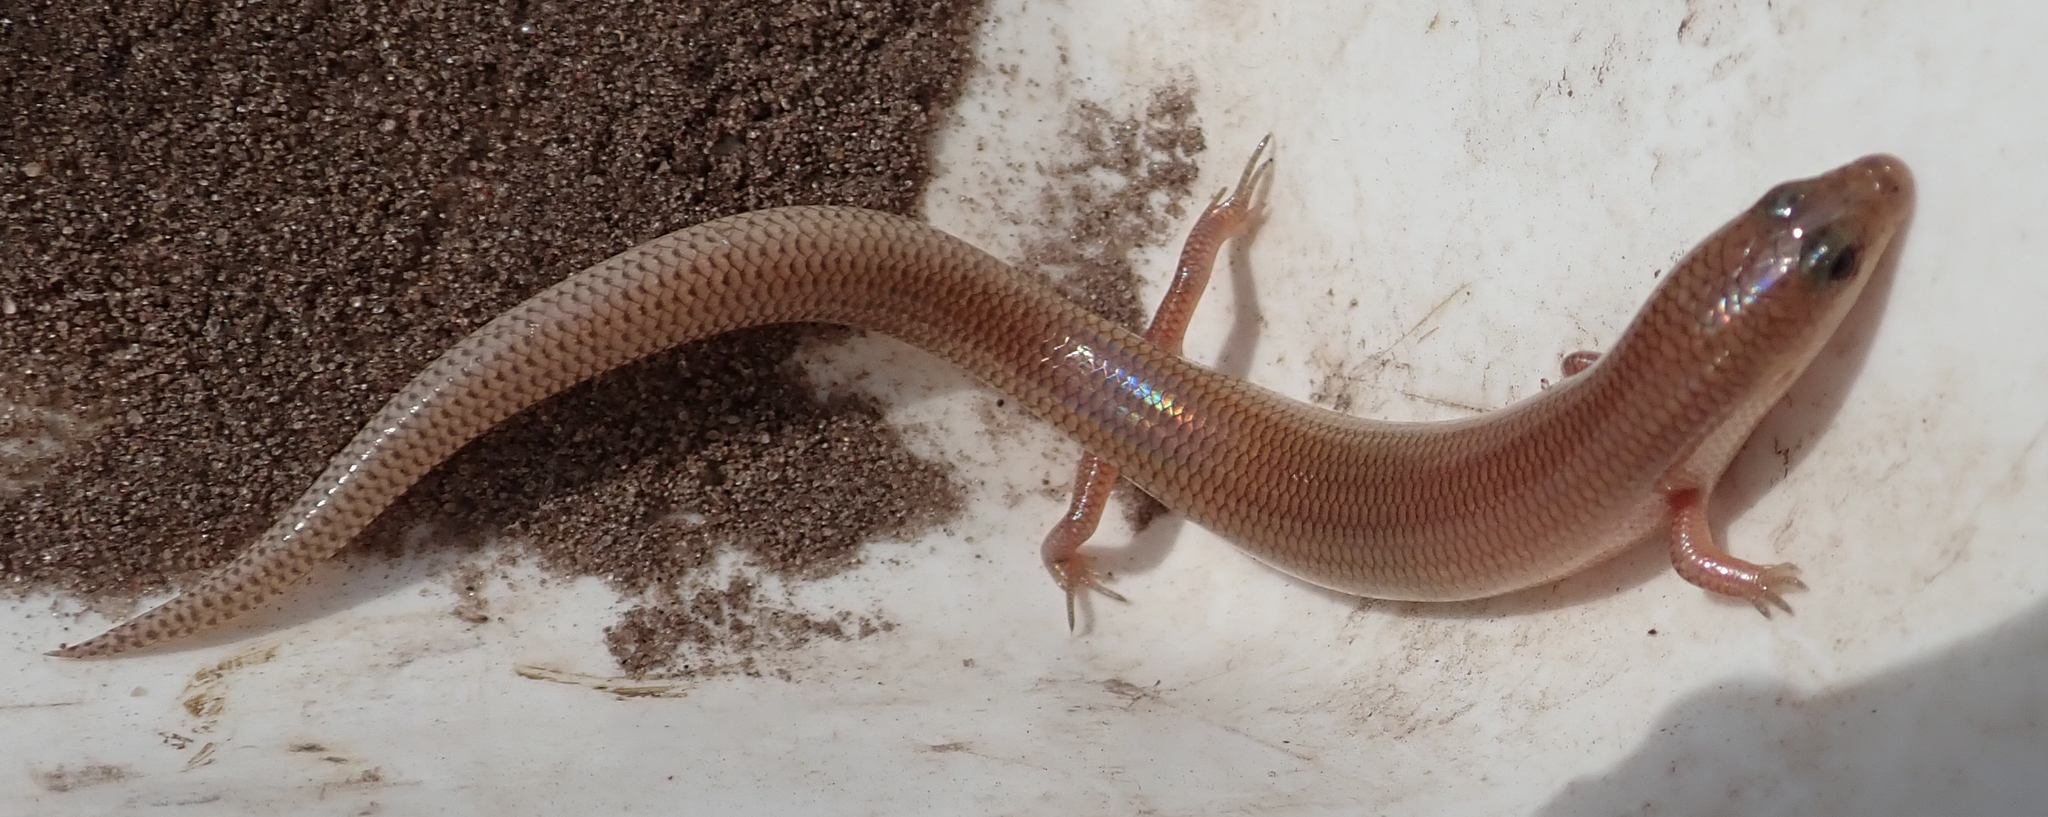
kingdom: Animalia
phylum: Chordata
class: Squamata
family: Scincidae
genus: Mochlus
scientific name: Mochlus sundevallii
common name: Peters' eyelid skink
